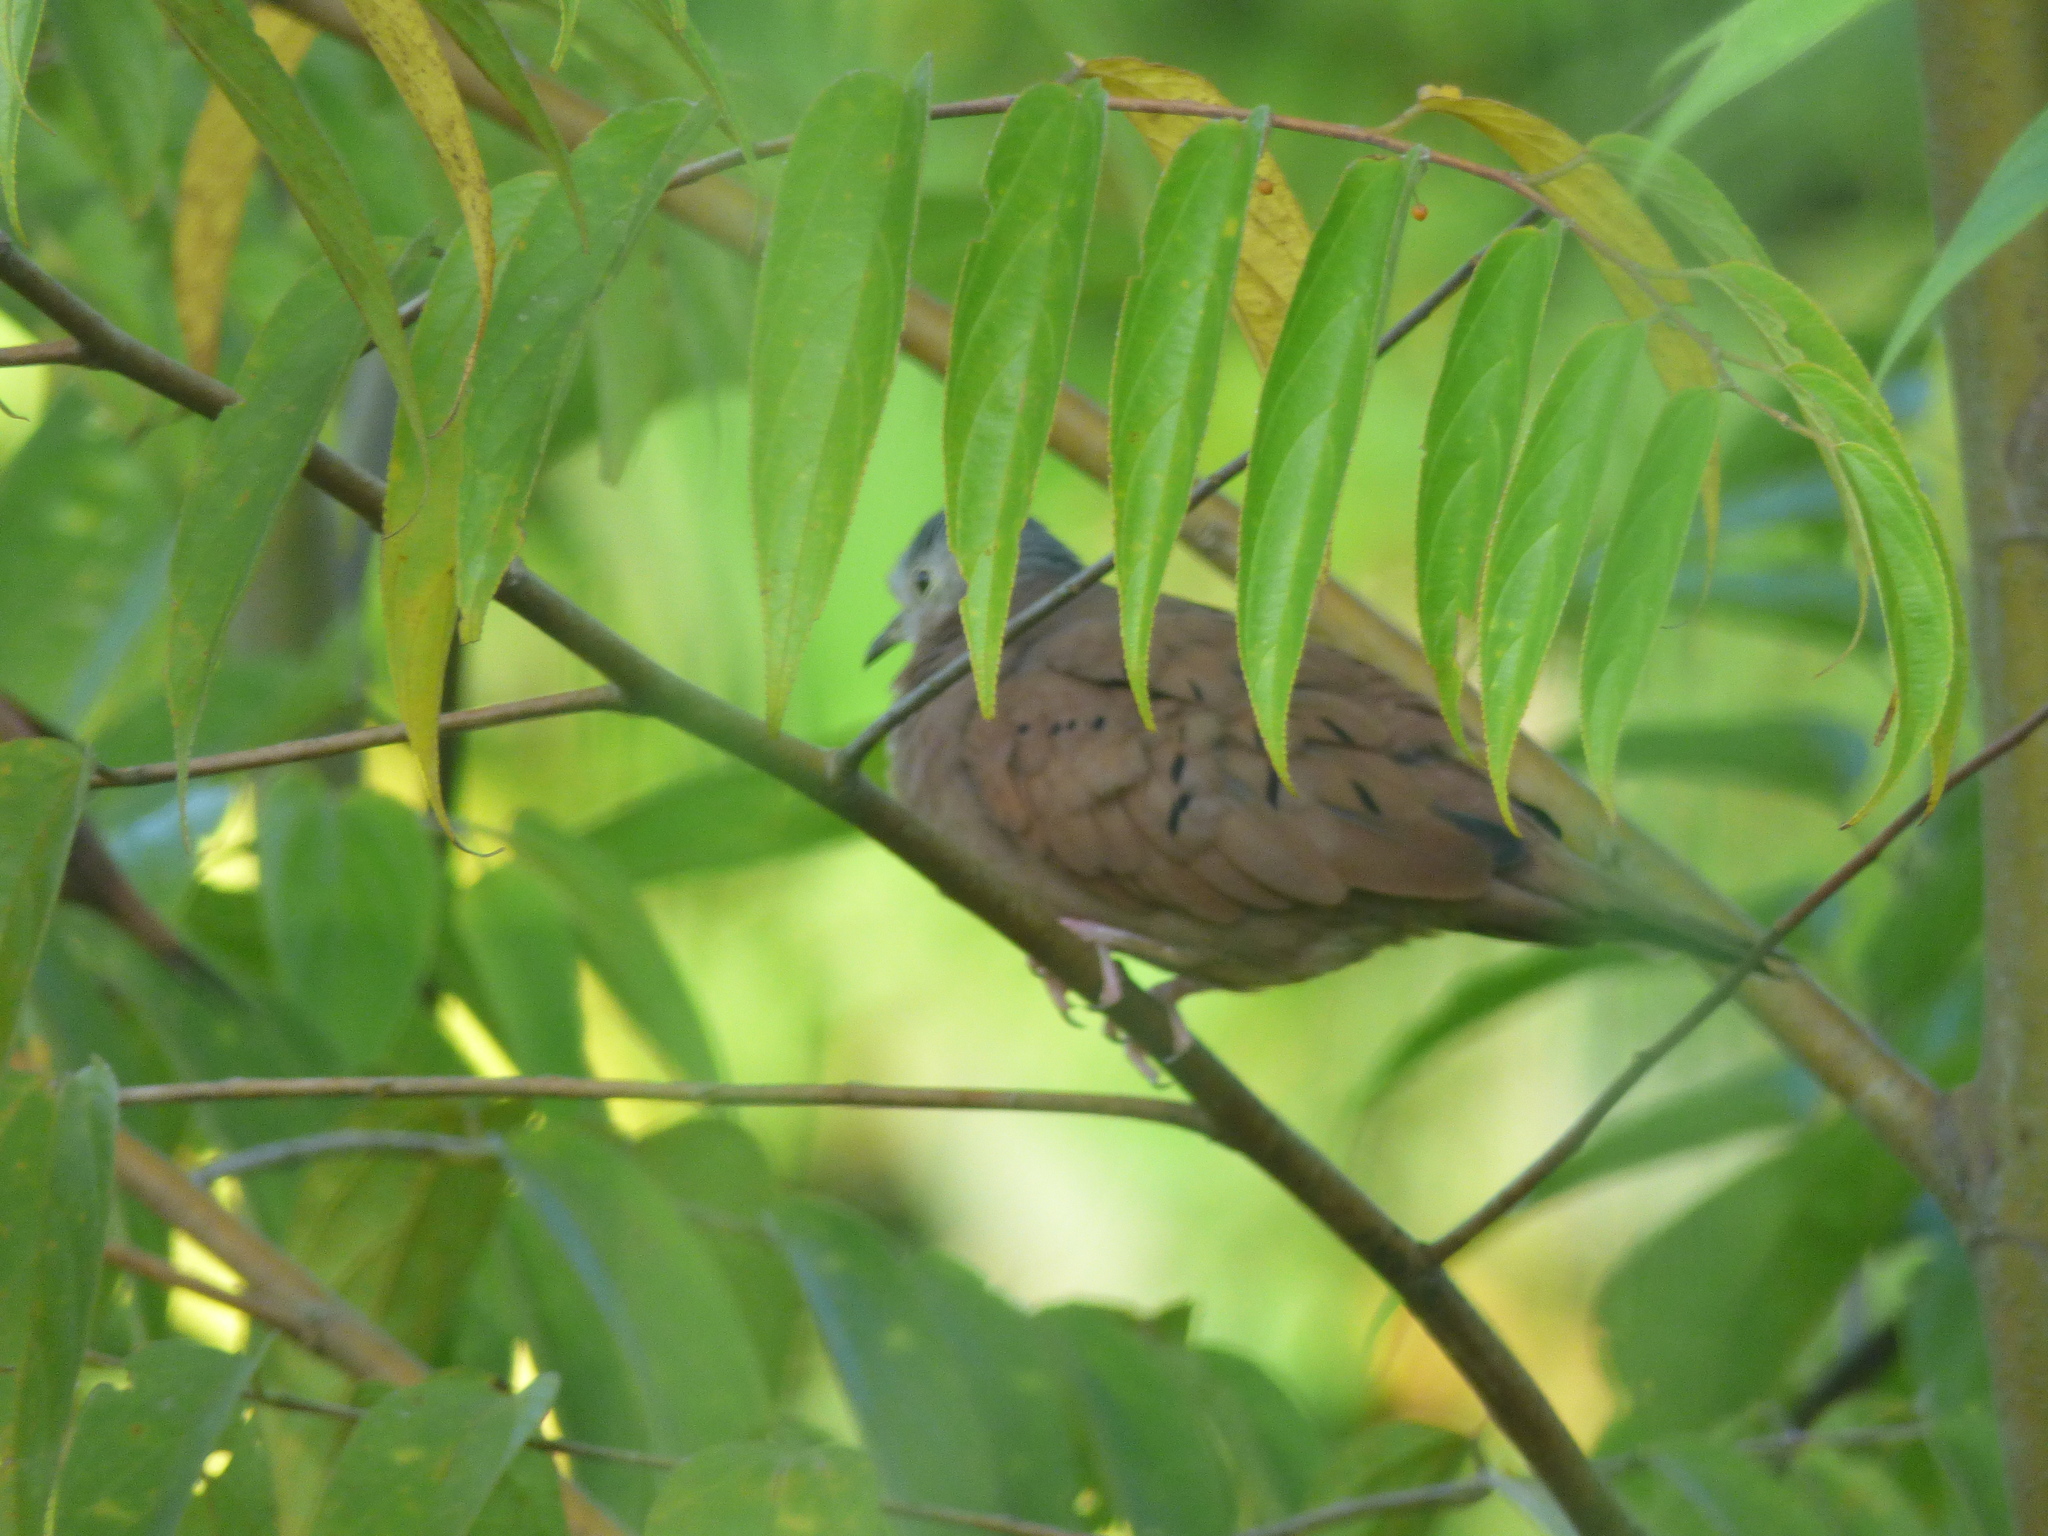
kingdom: Animalia
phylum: Chordata
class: Aves
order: Columbiformes
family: Columbidae
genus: Columbina
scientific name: Columbina talpacoti
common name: Ruddy ground dove
